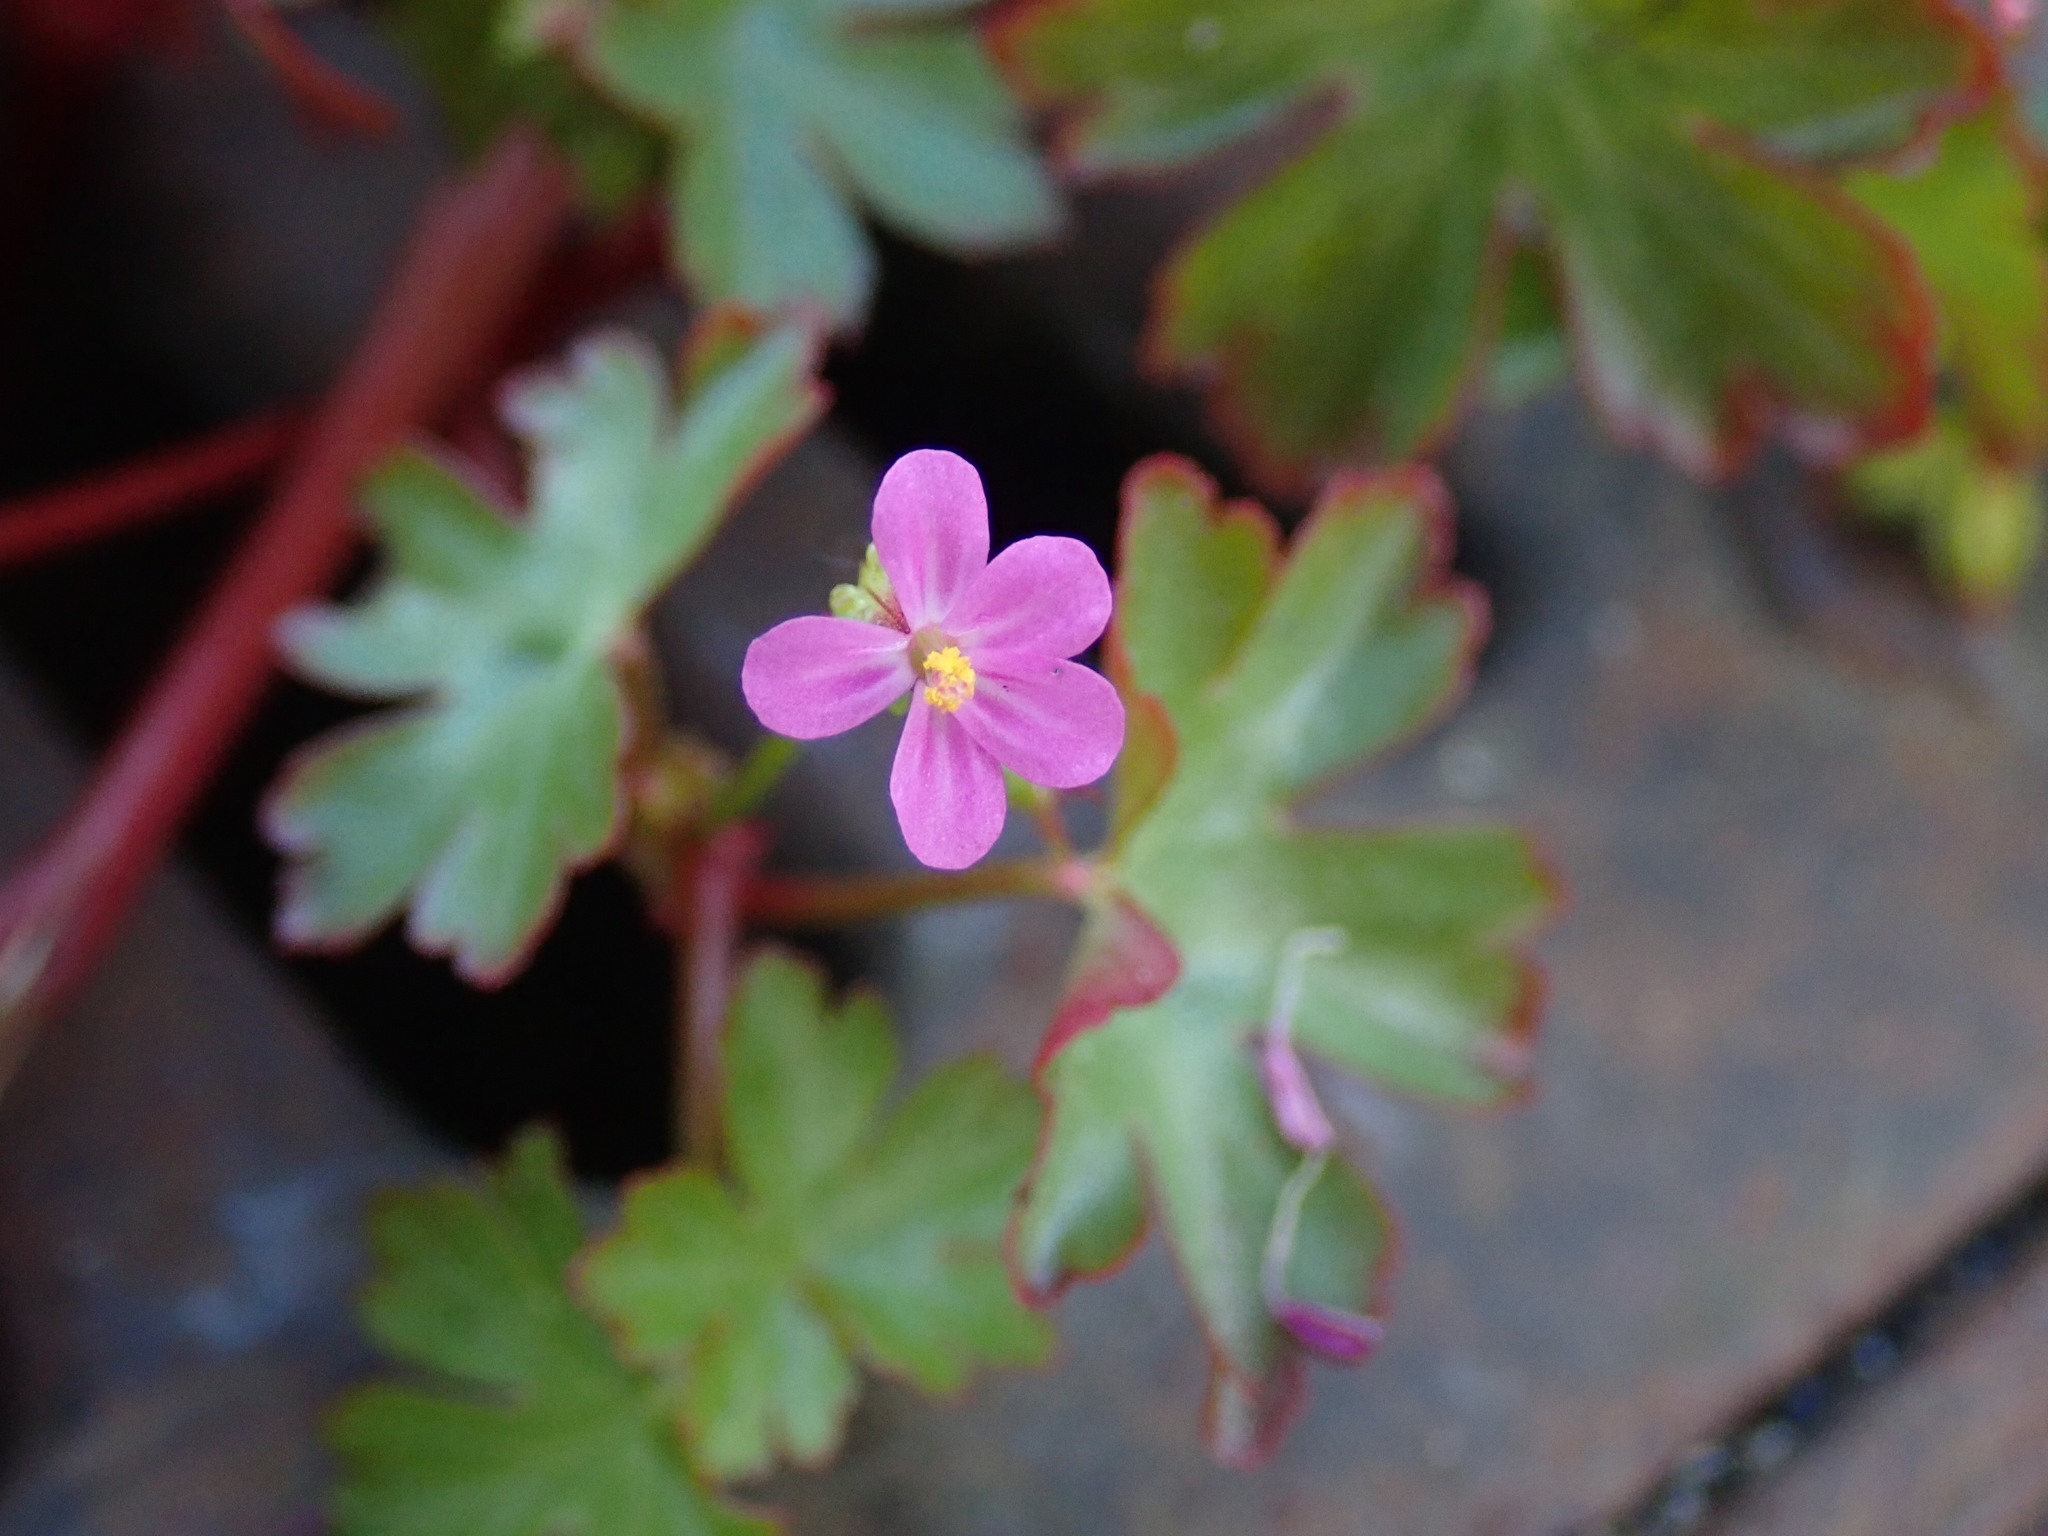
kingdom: Plantae
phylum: Tracheophyta
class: Magnoliopsida
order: Geraniales
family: Geraniaceae
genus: Geranium
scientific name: Geranium lucidum
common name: Shining crane's-bill
